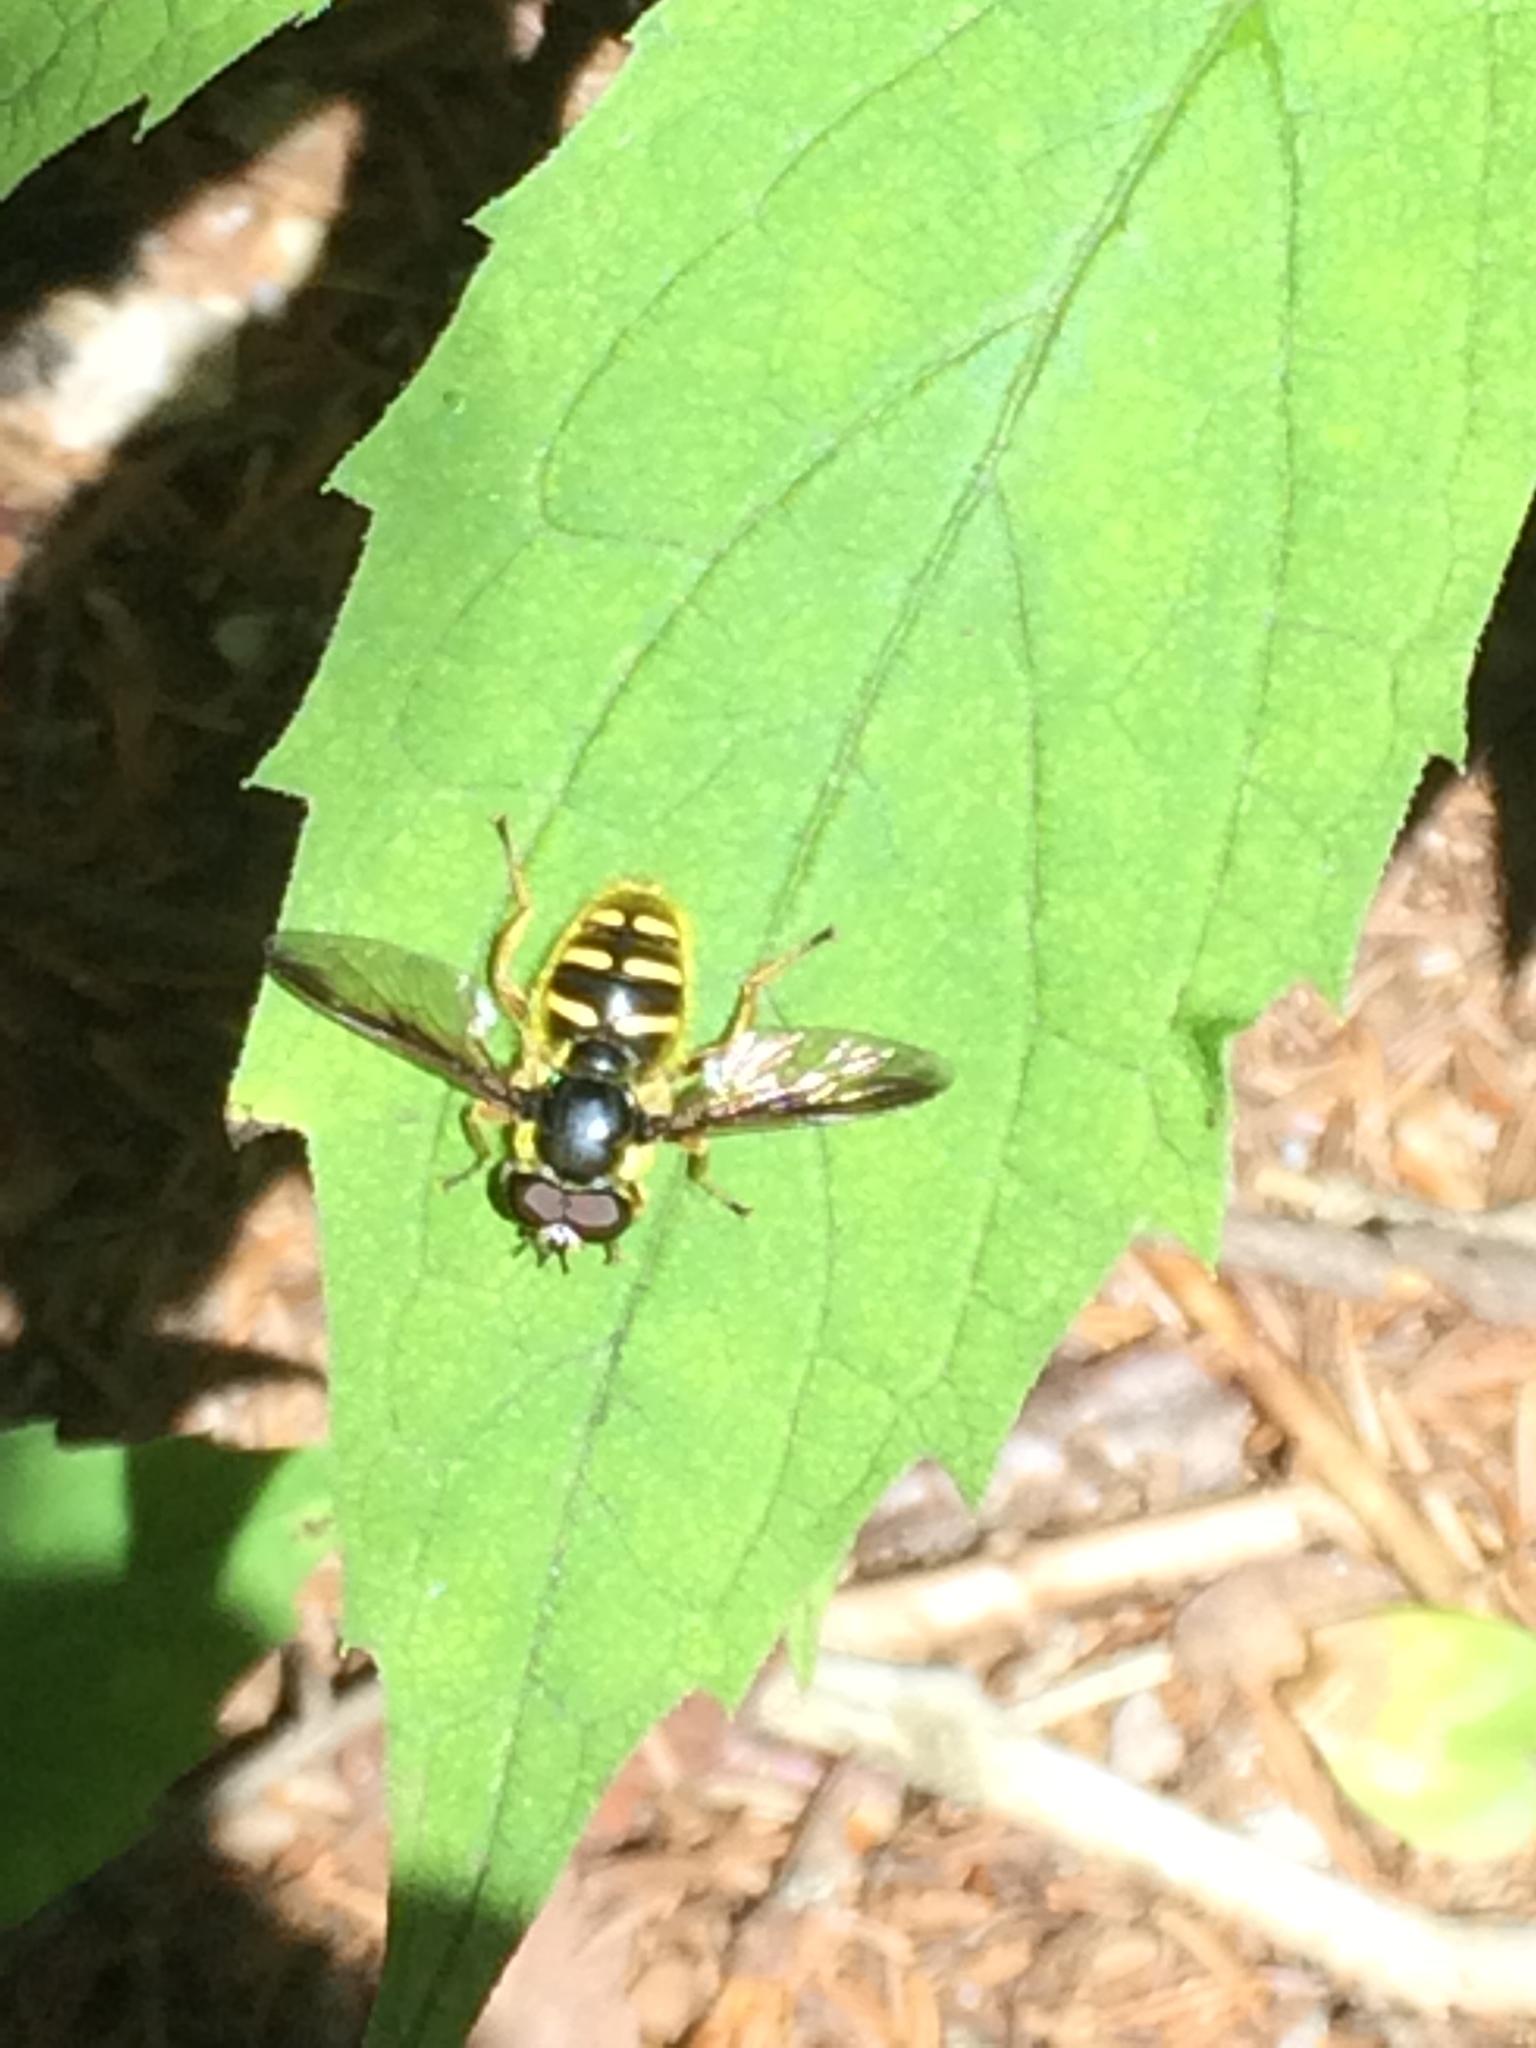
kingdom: Animalia
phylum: Arthropoda
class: Insecta
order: Diptera
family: Syrphidae
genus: Sericomyia
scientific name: Sericomyia chrysotoxoides
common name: Oblique-banded pond fly
